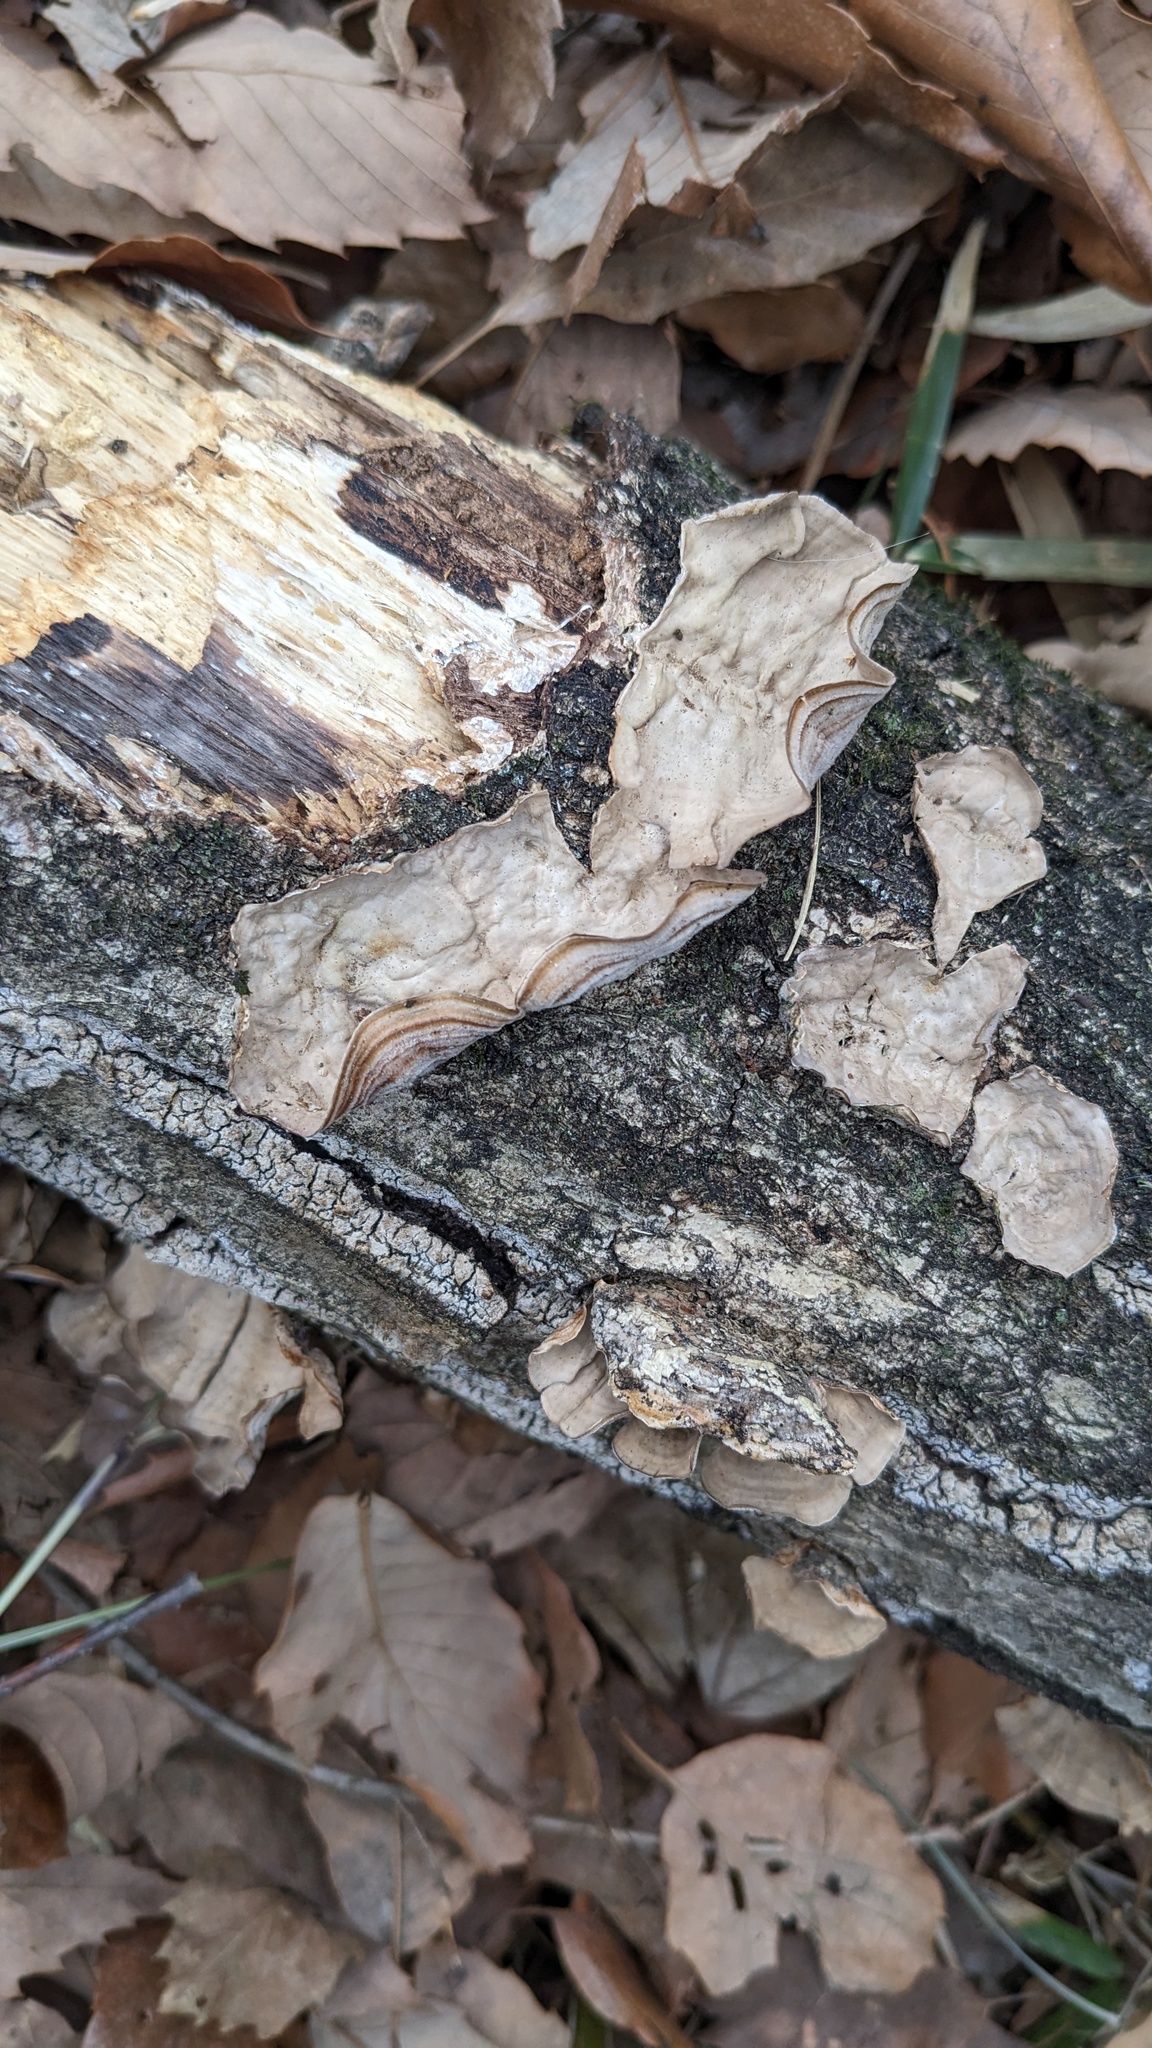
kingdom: Fungi
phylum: Basidiomycota
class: Agaricomycetes
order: Russulales
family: Stereaceae
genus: Stereum
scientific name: Stereum ostrea
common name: False turkeytail
